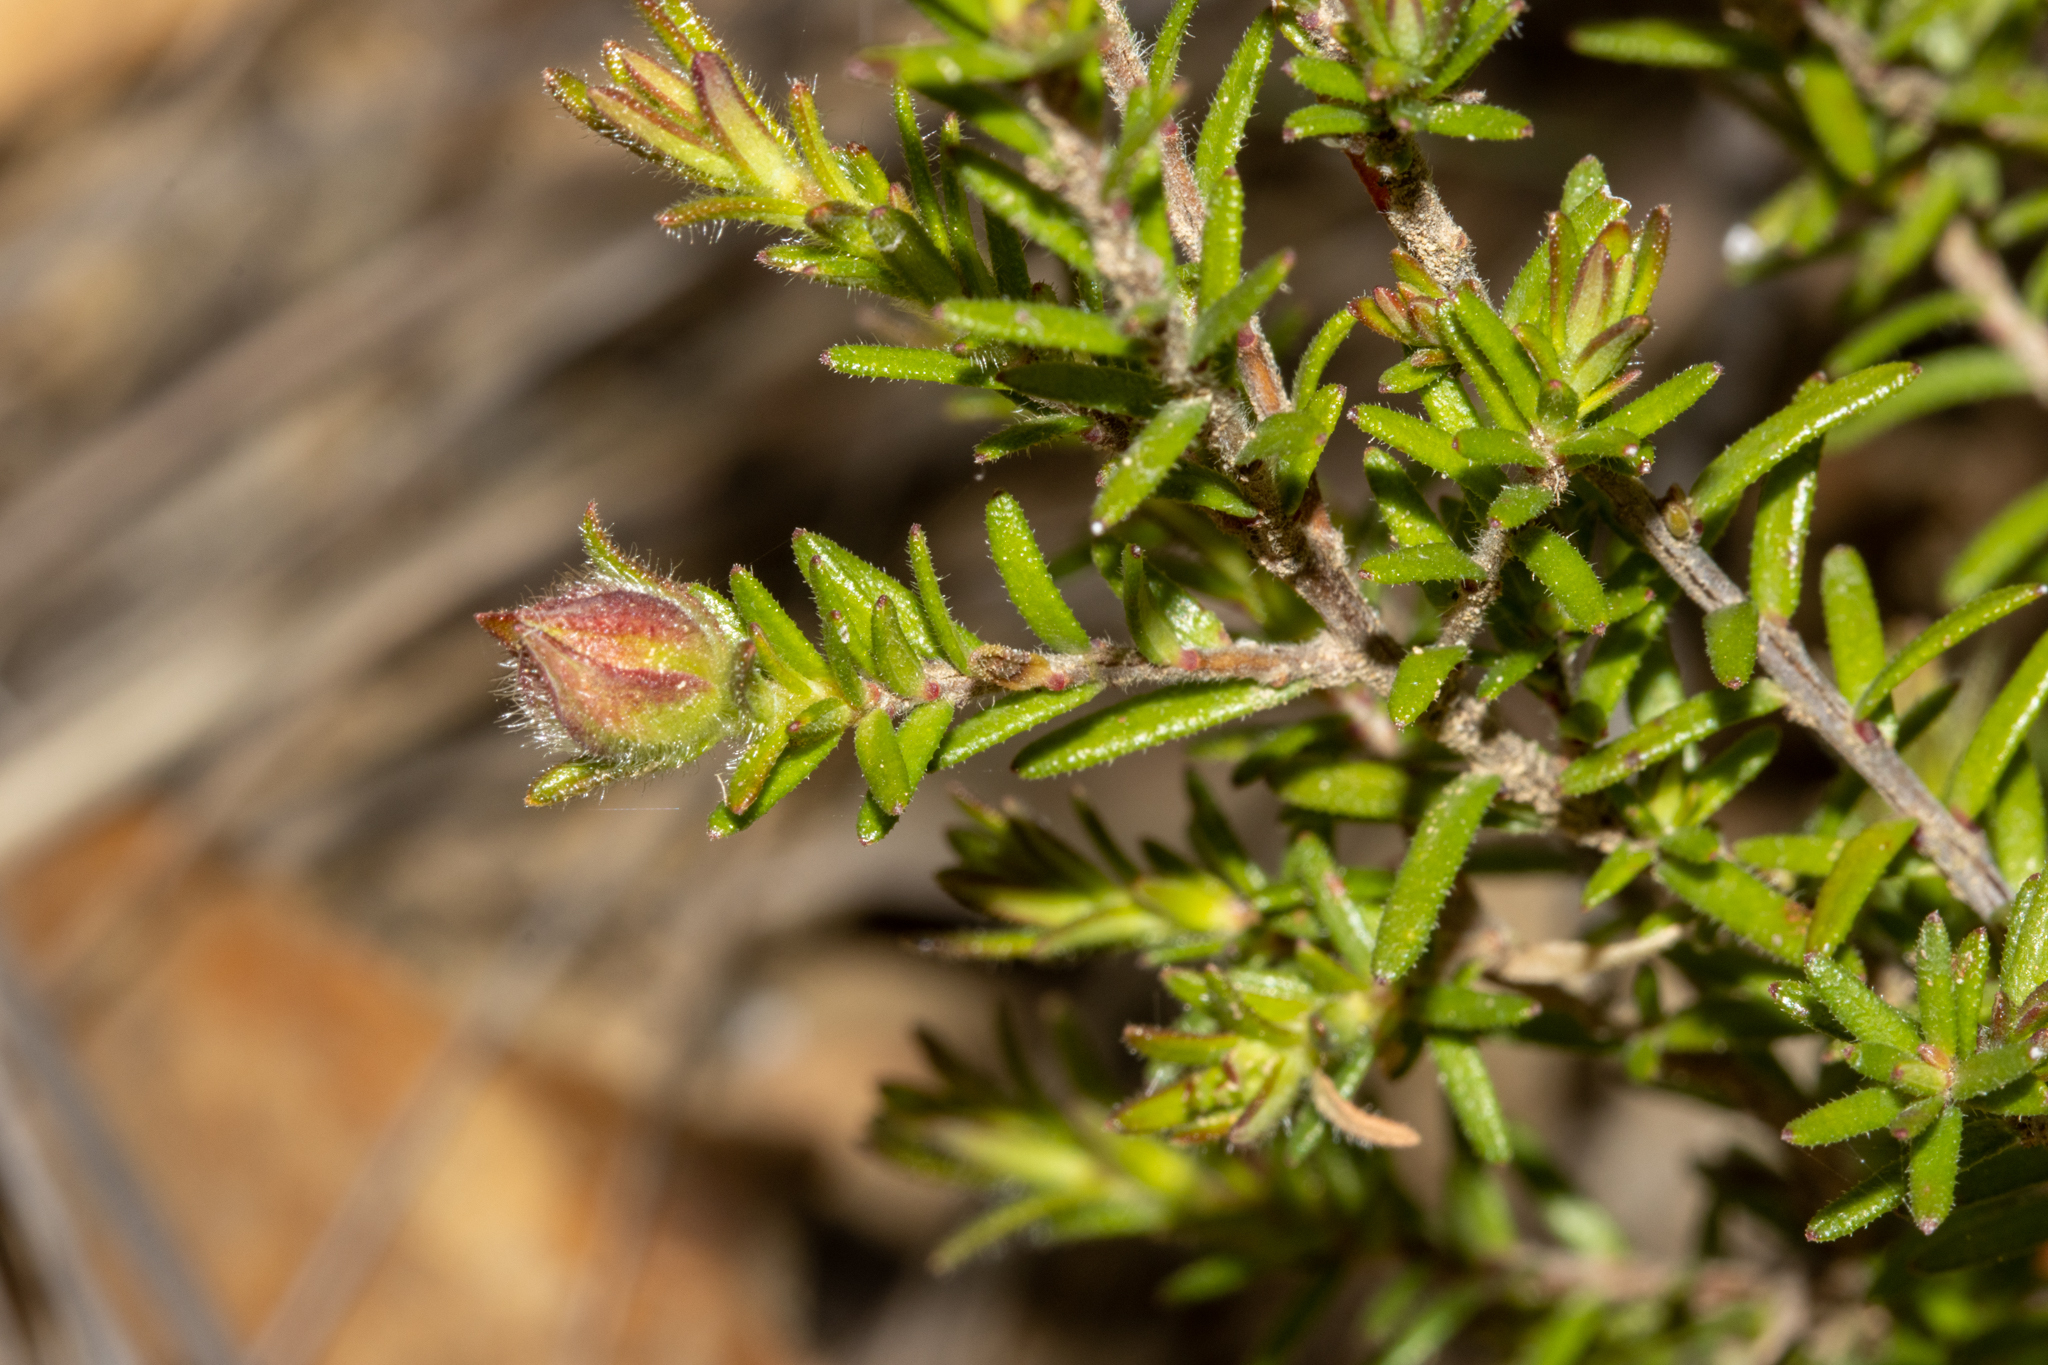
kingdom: Plantae
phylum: Tracheophyta
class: Magnoliopsida
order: Dilleniales
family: Dilleniaceae
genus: Hibbertia
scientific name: Hibbertia puberula
